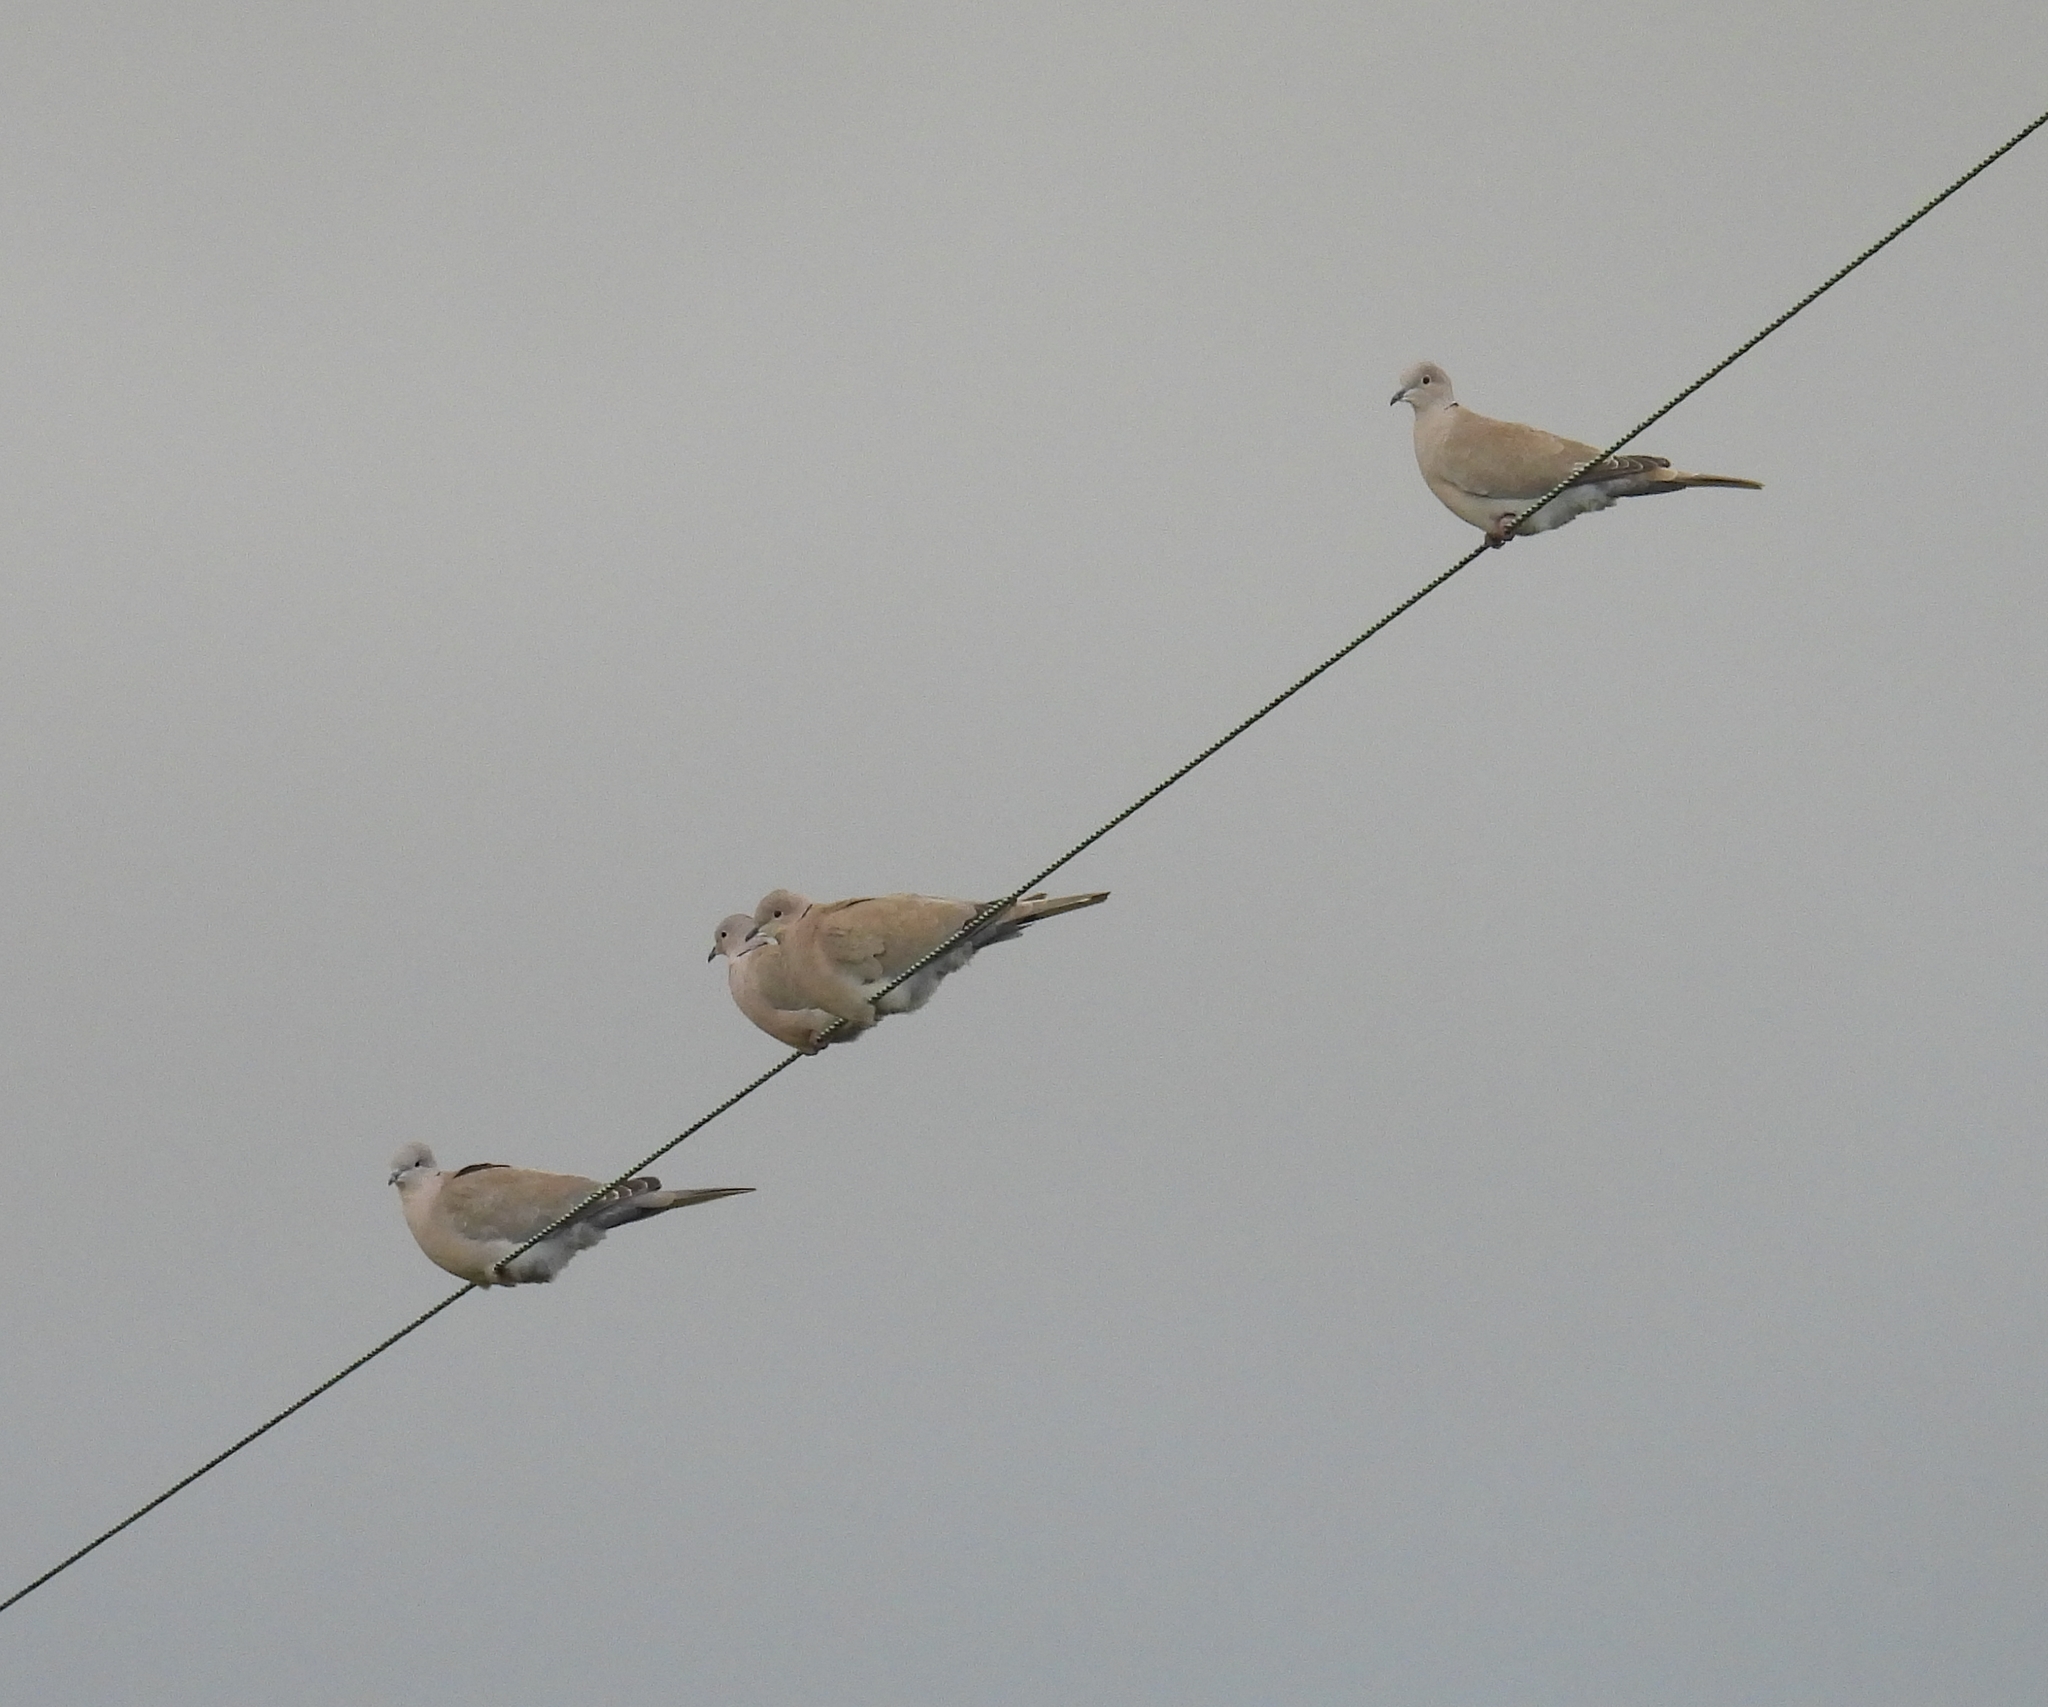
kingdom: Animalia
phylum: Chordata
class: Aves
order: Columbiformes
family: Columbidae
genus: Streptopelia
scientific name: Streptopelia decaocto
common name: Eurasian collared dove
